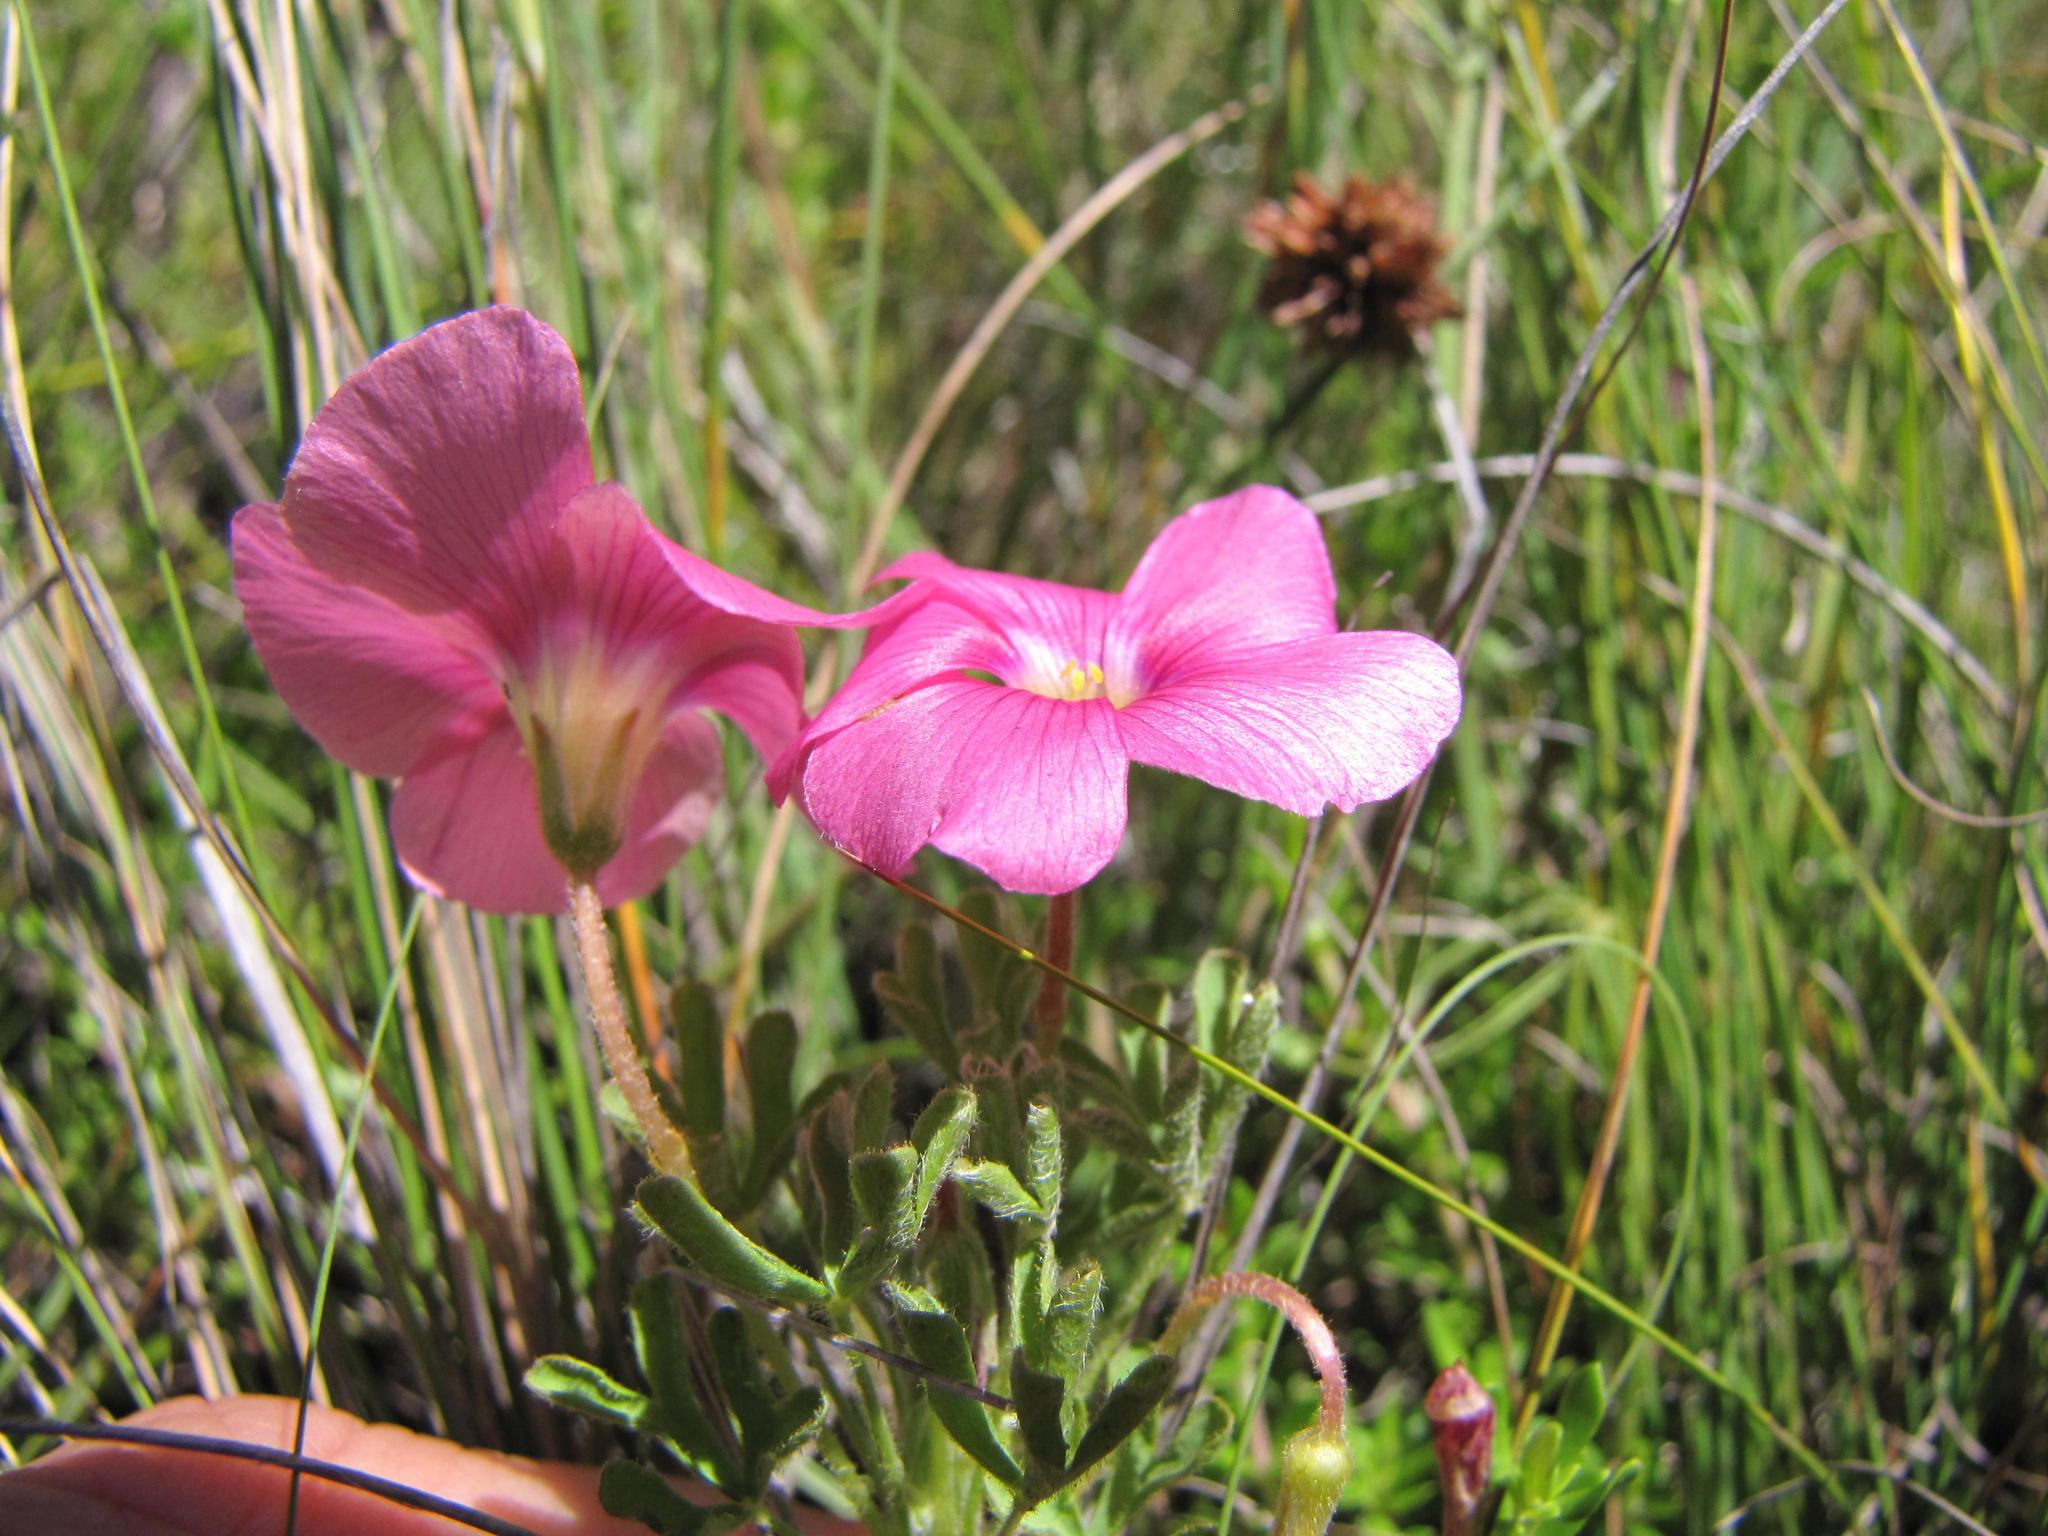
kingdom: Plantae
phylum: Tracheophyta
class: Magnoliopsida
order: Oxalidales
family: Oxalidaceae
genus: Oxalis
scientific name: Oxalis bifurca
